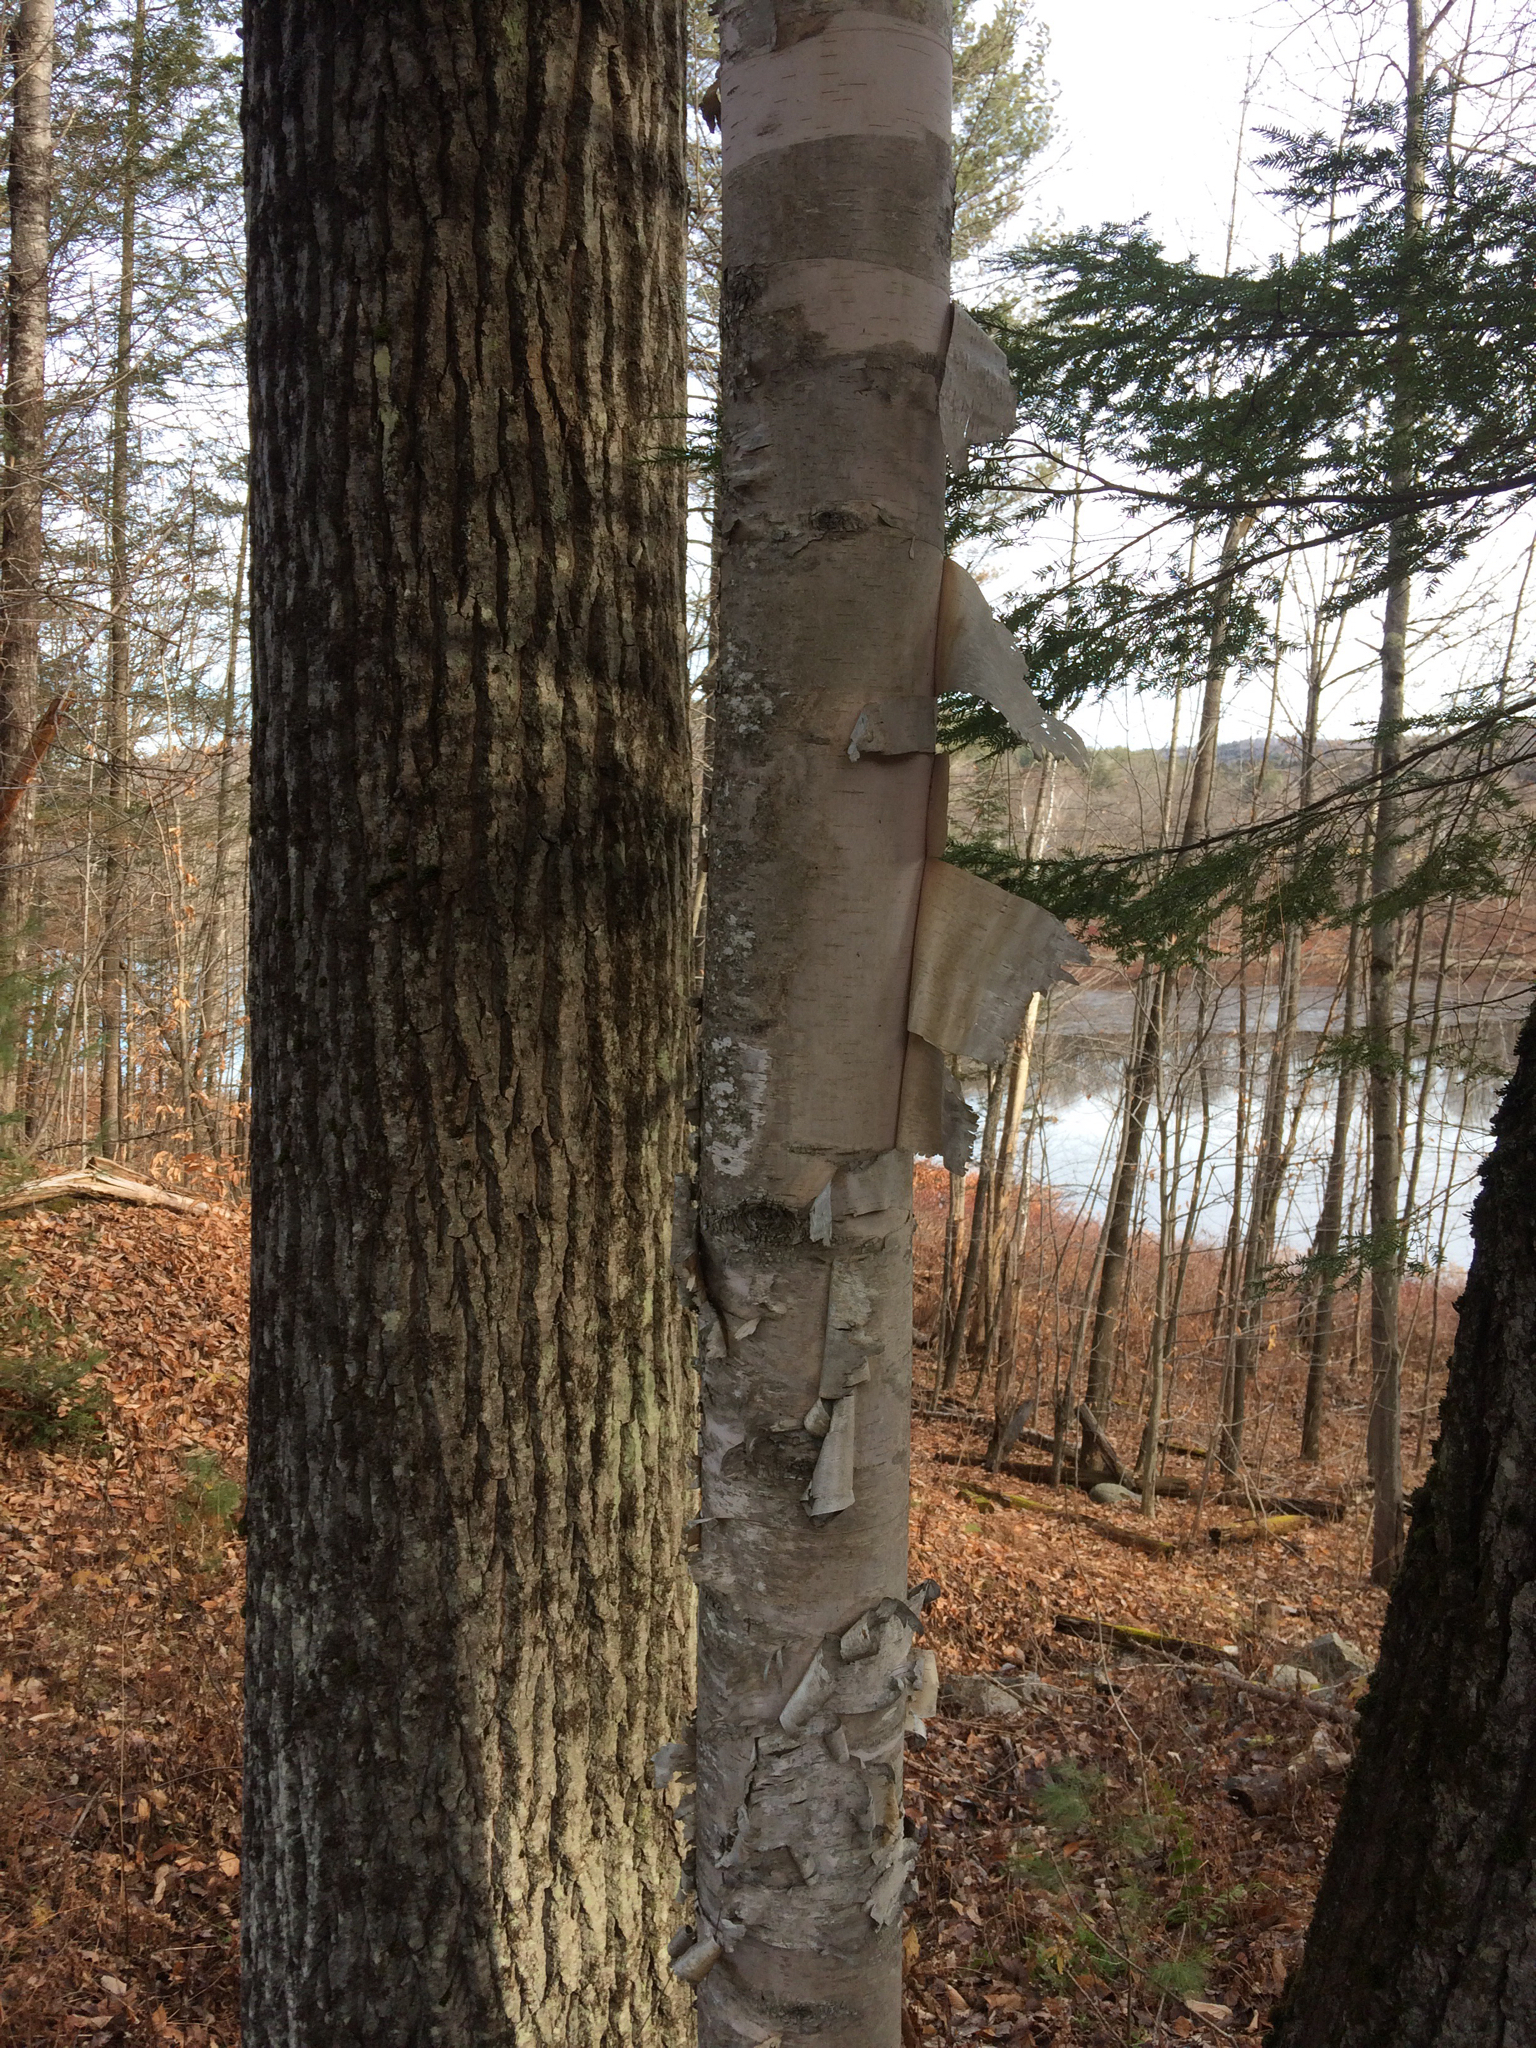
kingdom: Plantae
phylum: Tracheophyta
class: Magnoliopsida
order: Fagales
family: Betulaceae
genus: Betula
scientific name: Betula papyrifera
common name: Paper birch
